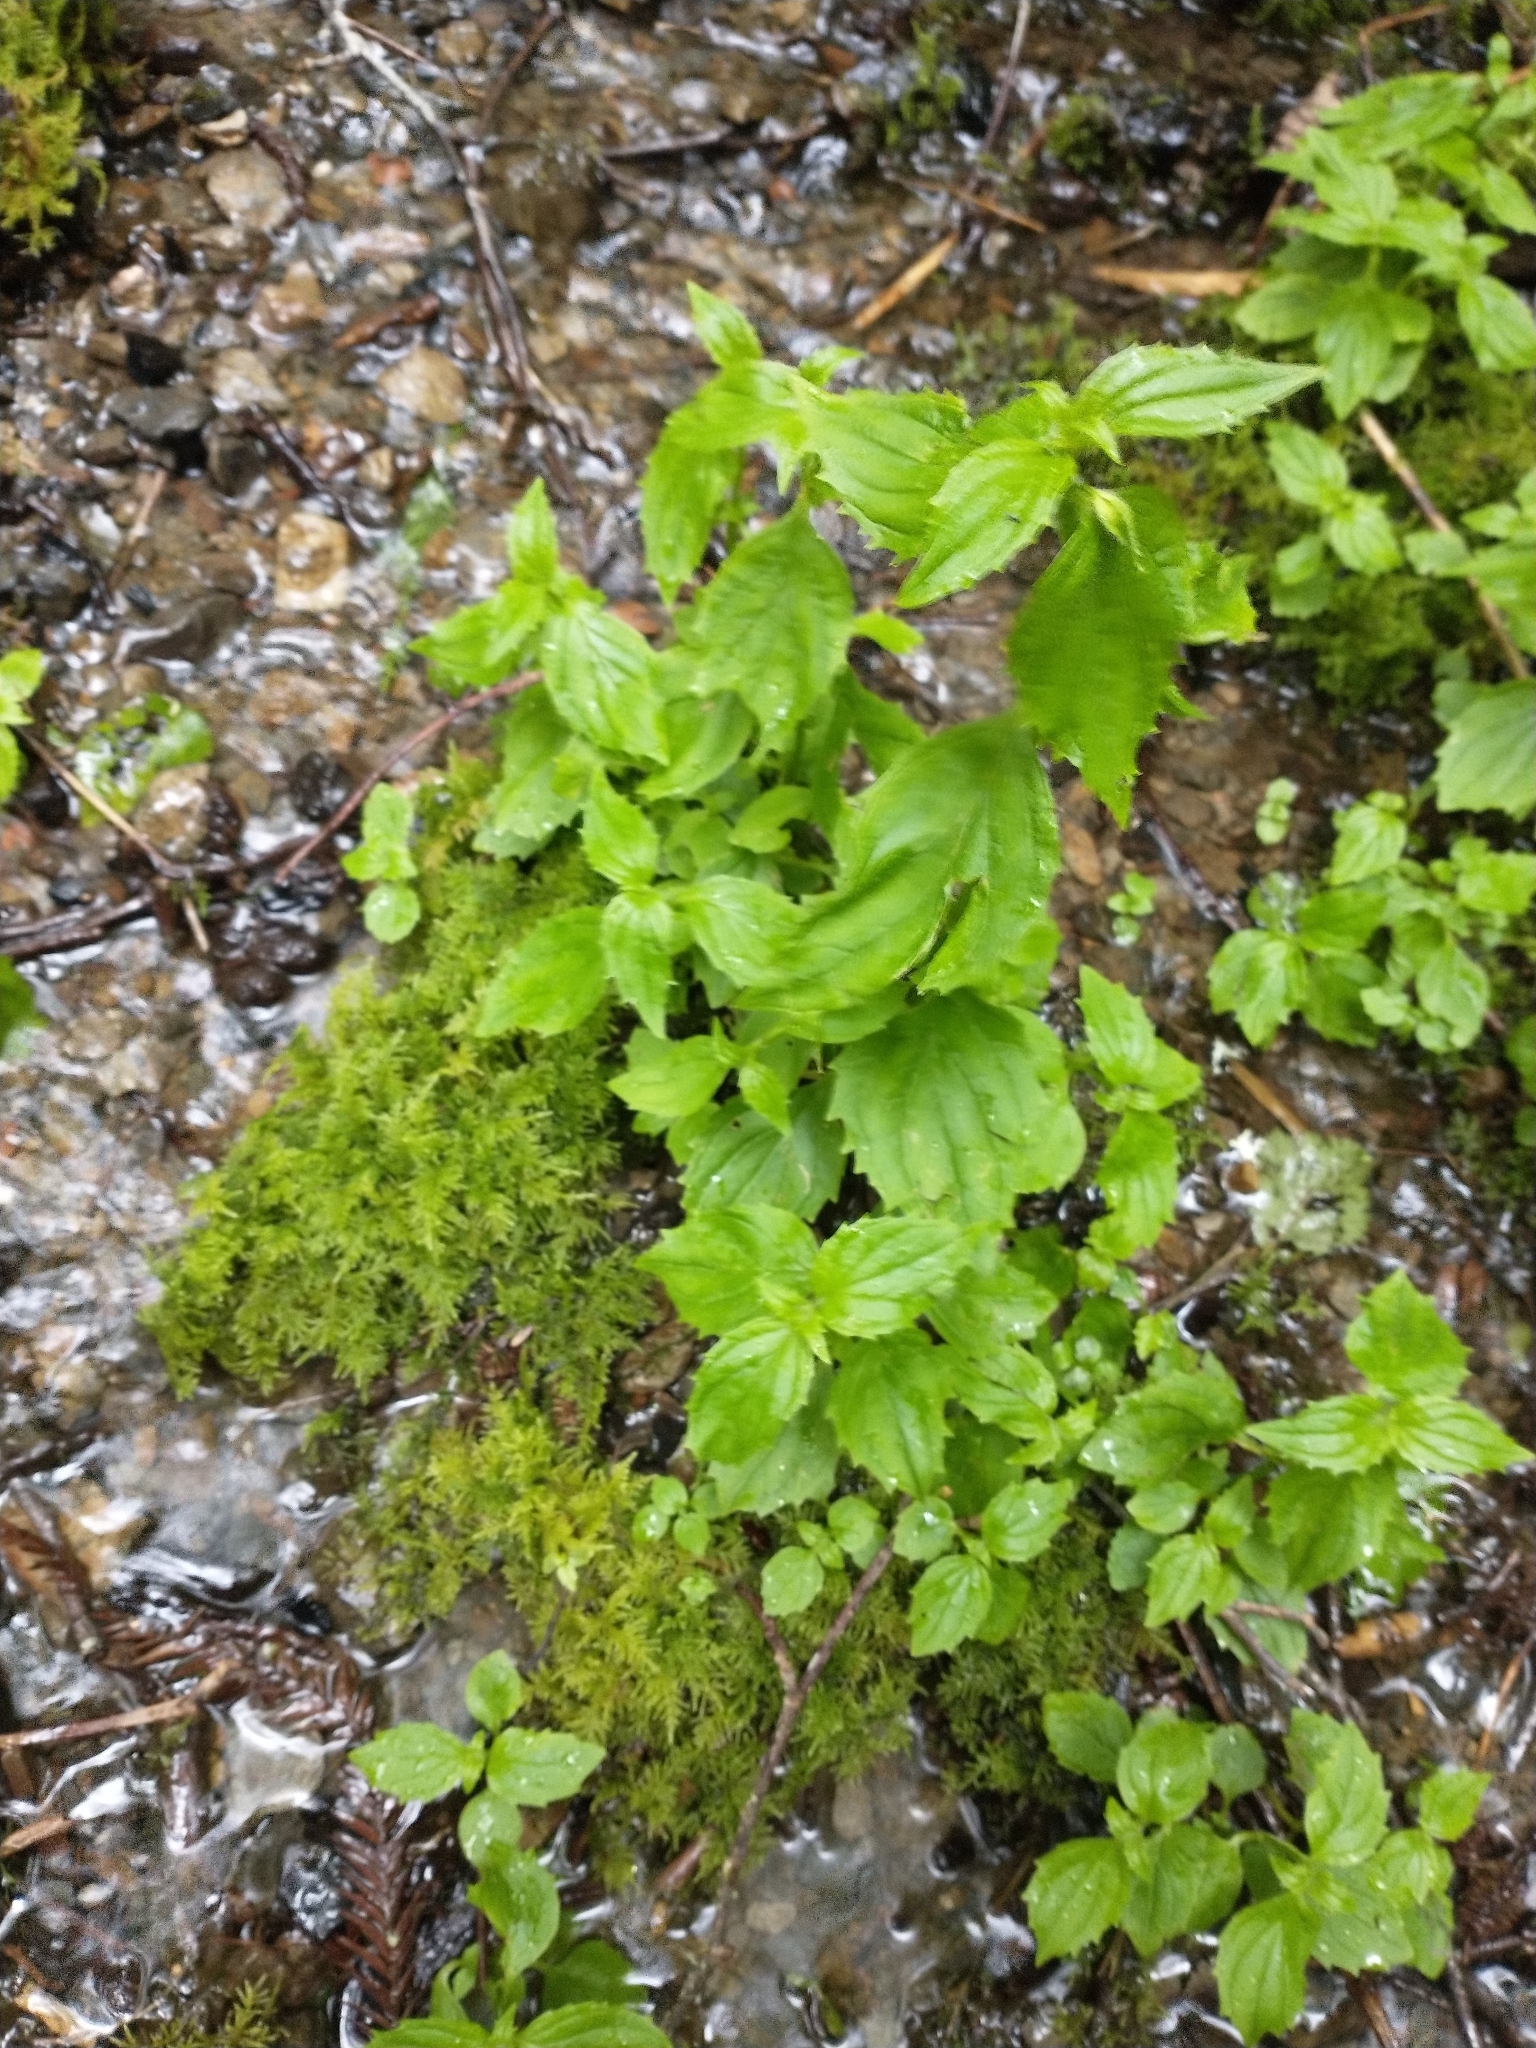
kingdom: Plantae
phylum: Tracheophyta
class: Magnoliopsida
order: Lamiales
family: Phrymaceae
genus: Erythranthe
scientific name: Erythranthe dentata
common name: Coastal monkeyflower
